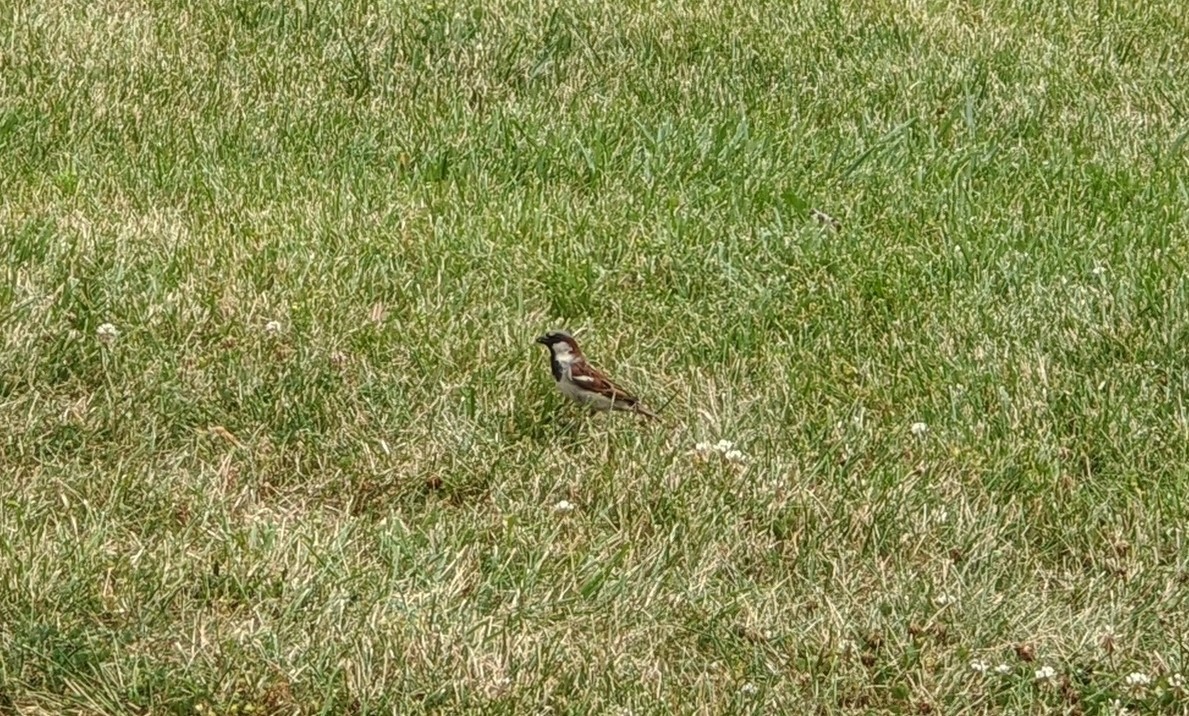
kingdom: Animalia
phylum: Chordata
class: Aves
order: Passeriformes
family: Passeridae
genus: Passer
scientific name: Passer domesticus
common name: House sparrow
